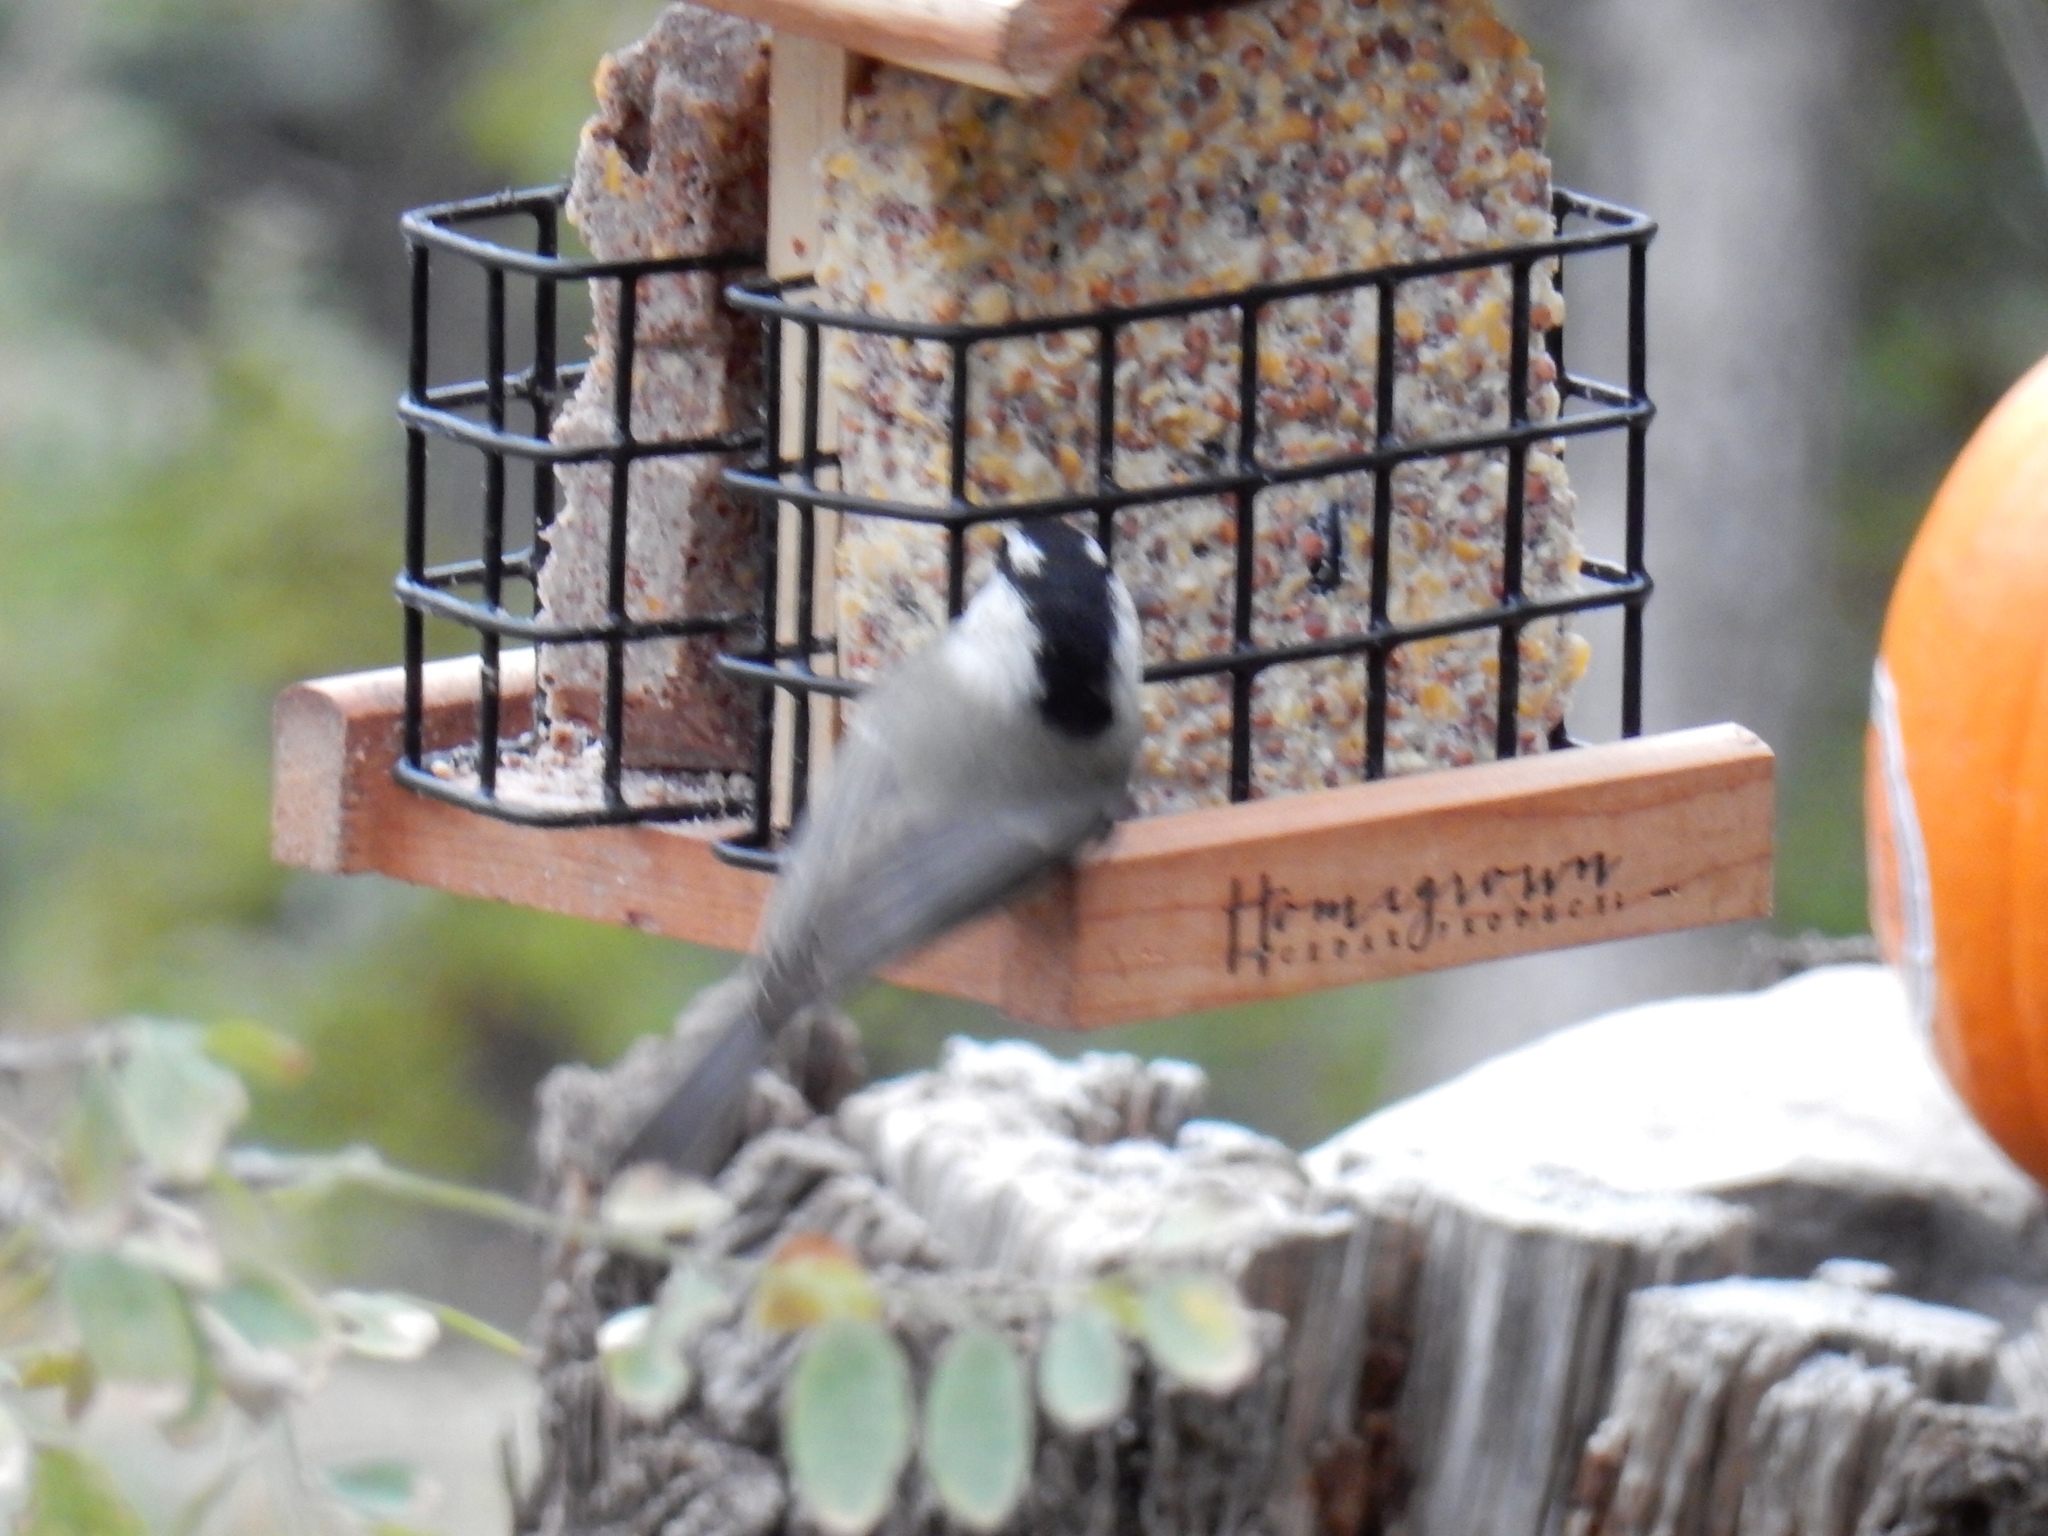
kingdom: Animalia
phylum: Chordata
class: Aves
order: Passeriformes
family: Paridae
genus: Poecile
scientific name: Poecile gambeli
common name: Mountain chickadee
